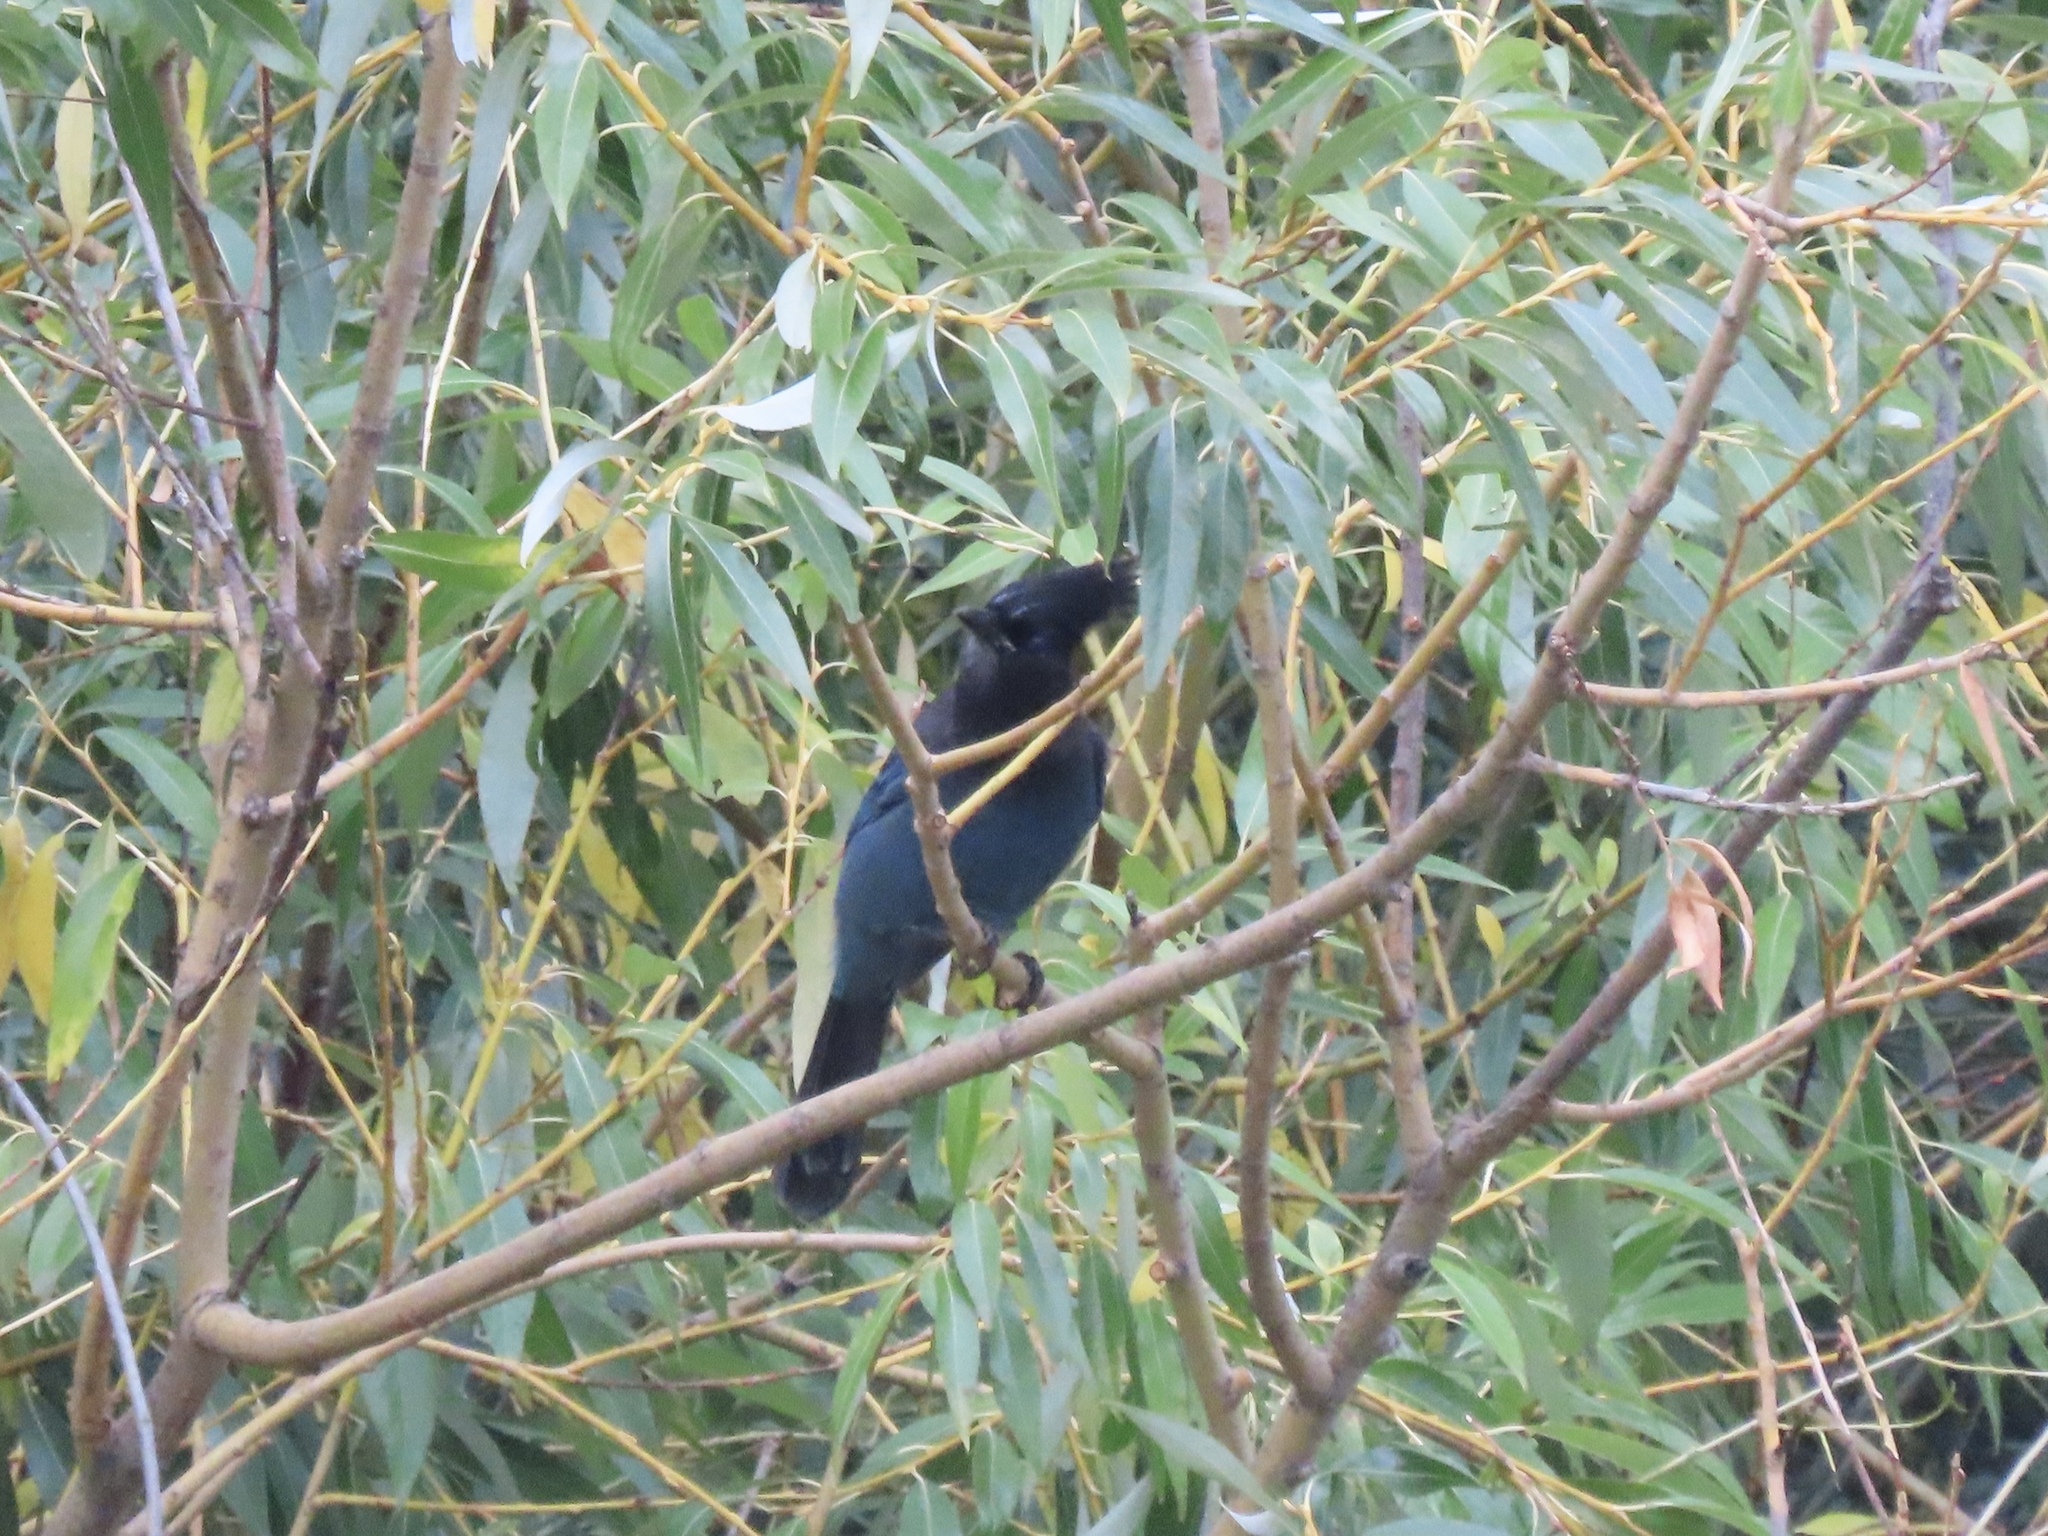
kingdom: Animalia
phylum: Chordata
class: Aves
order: Passeriformes
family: Corvidae
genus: Cyanocitta
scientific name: Cyanocitta stelleri
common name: Steller's jay
